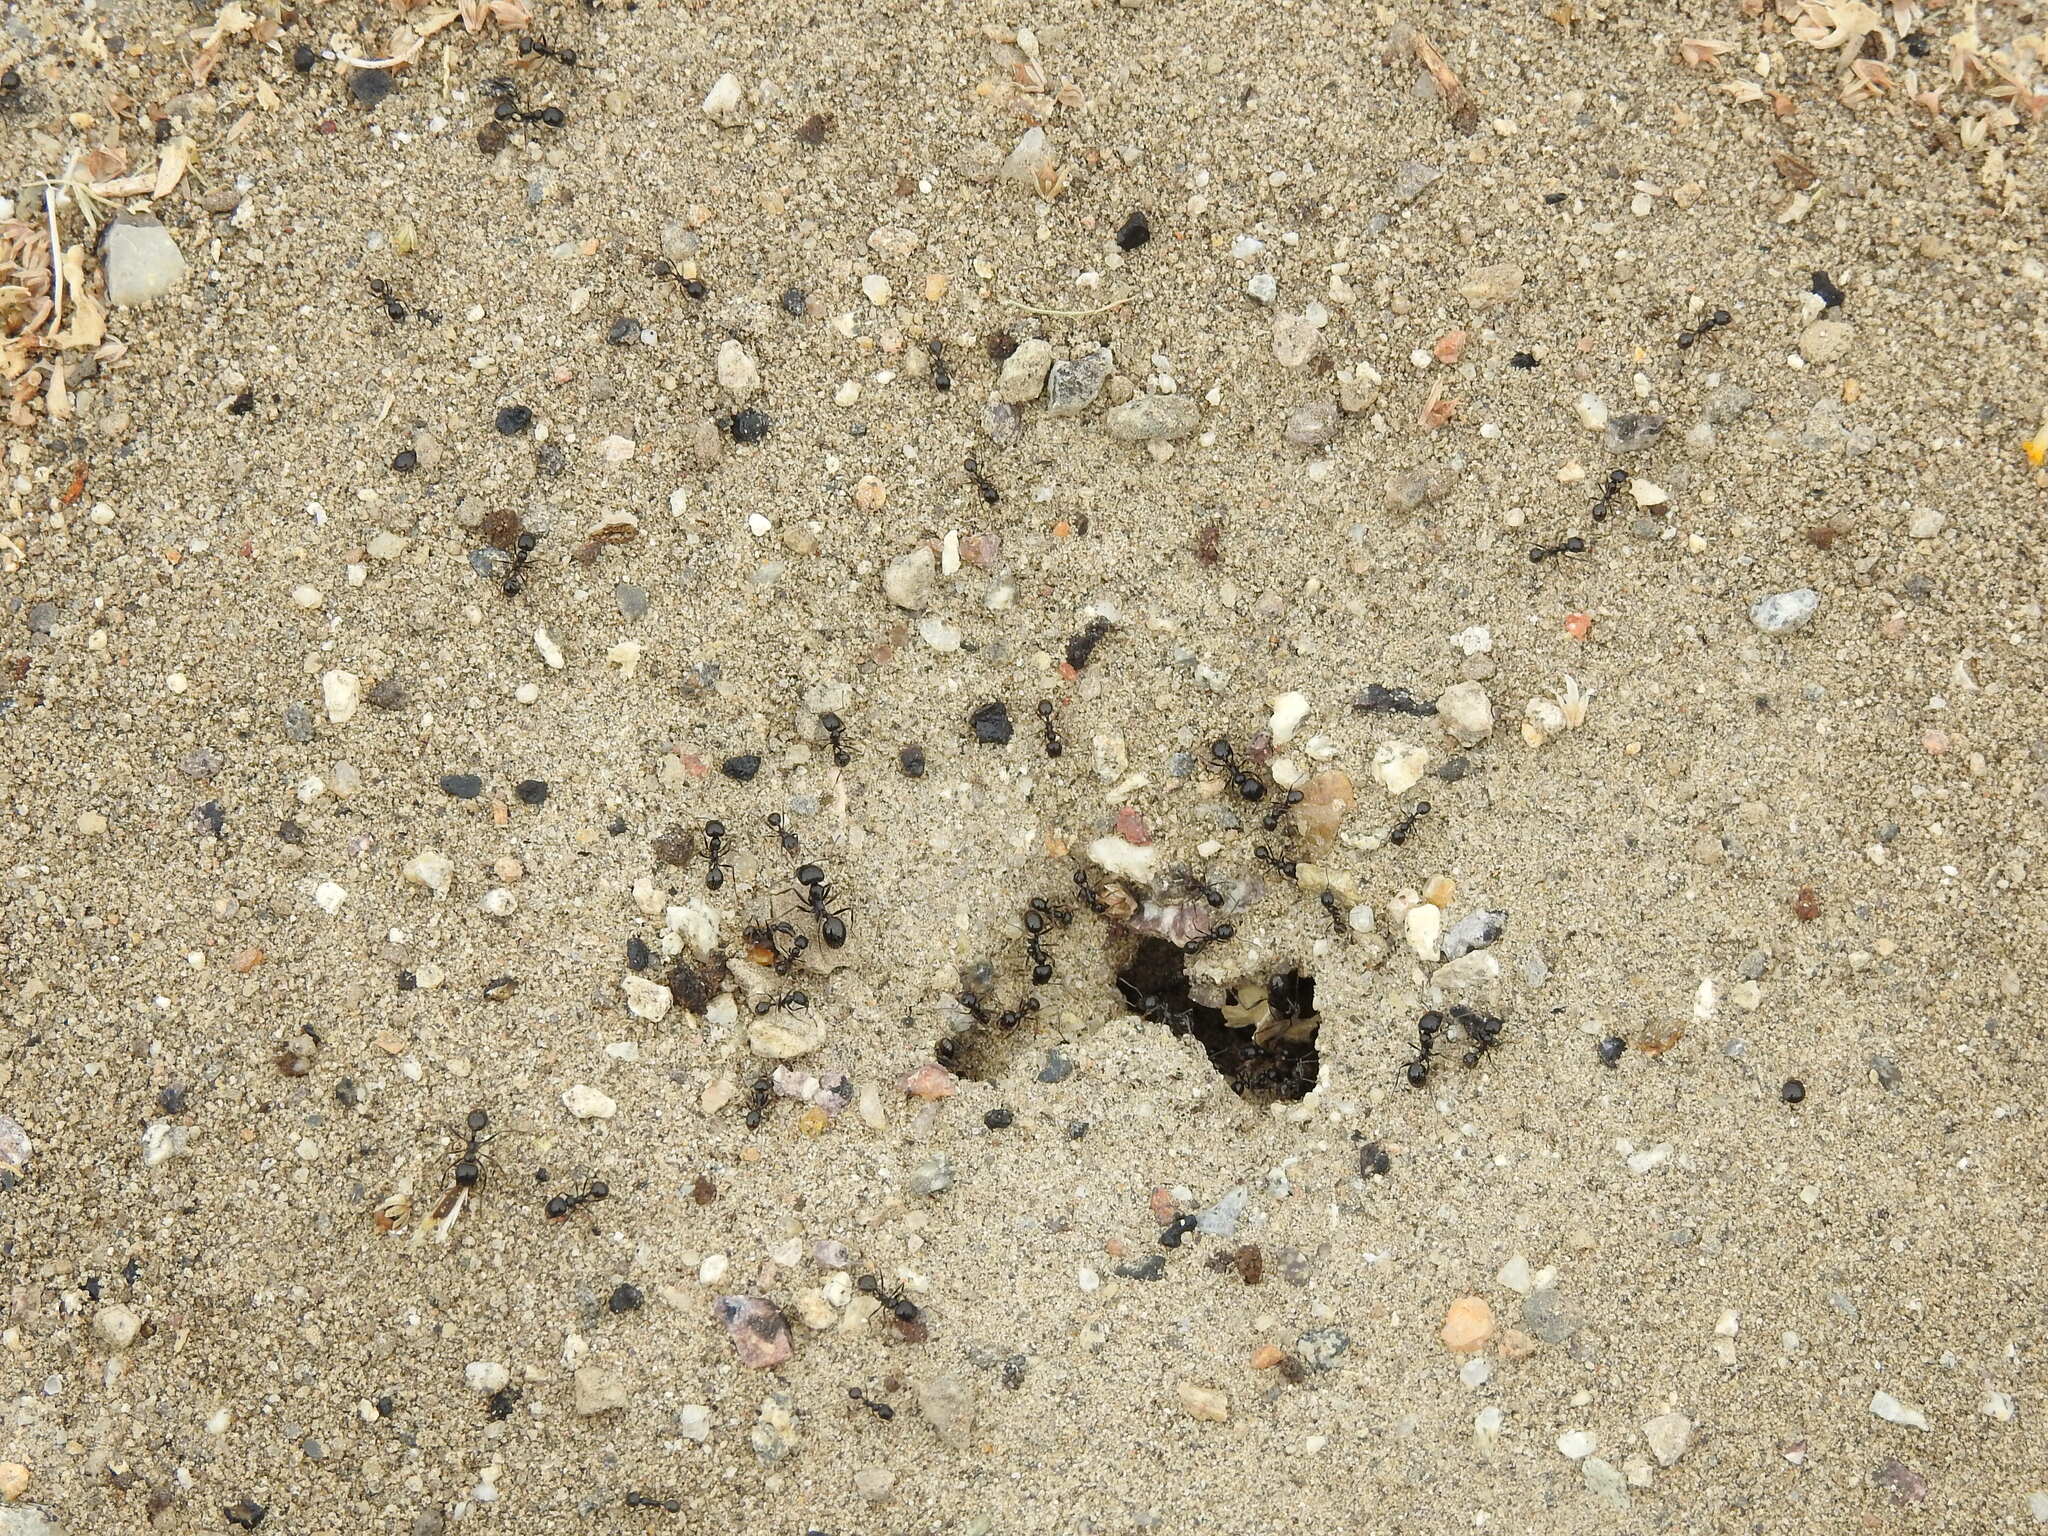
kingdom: Animalia
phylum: Arthropoda
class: Insecta
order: Hymenoptera
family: Formicidae
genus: Messor
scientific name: Messor pergandei
